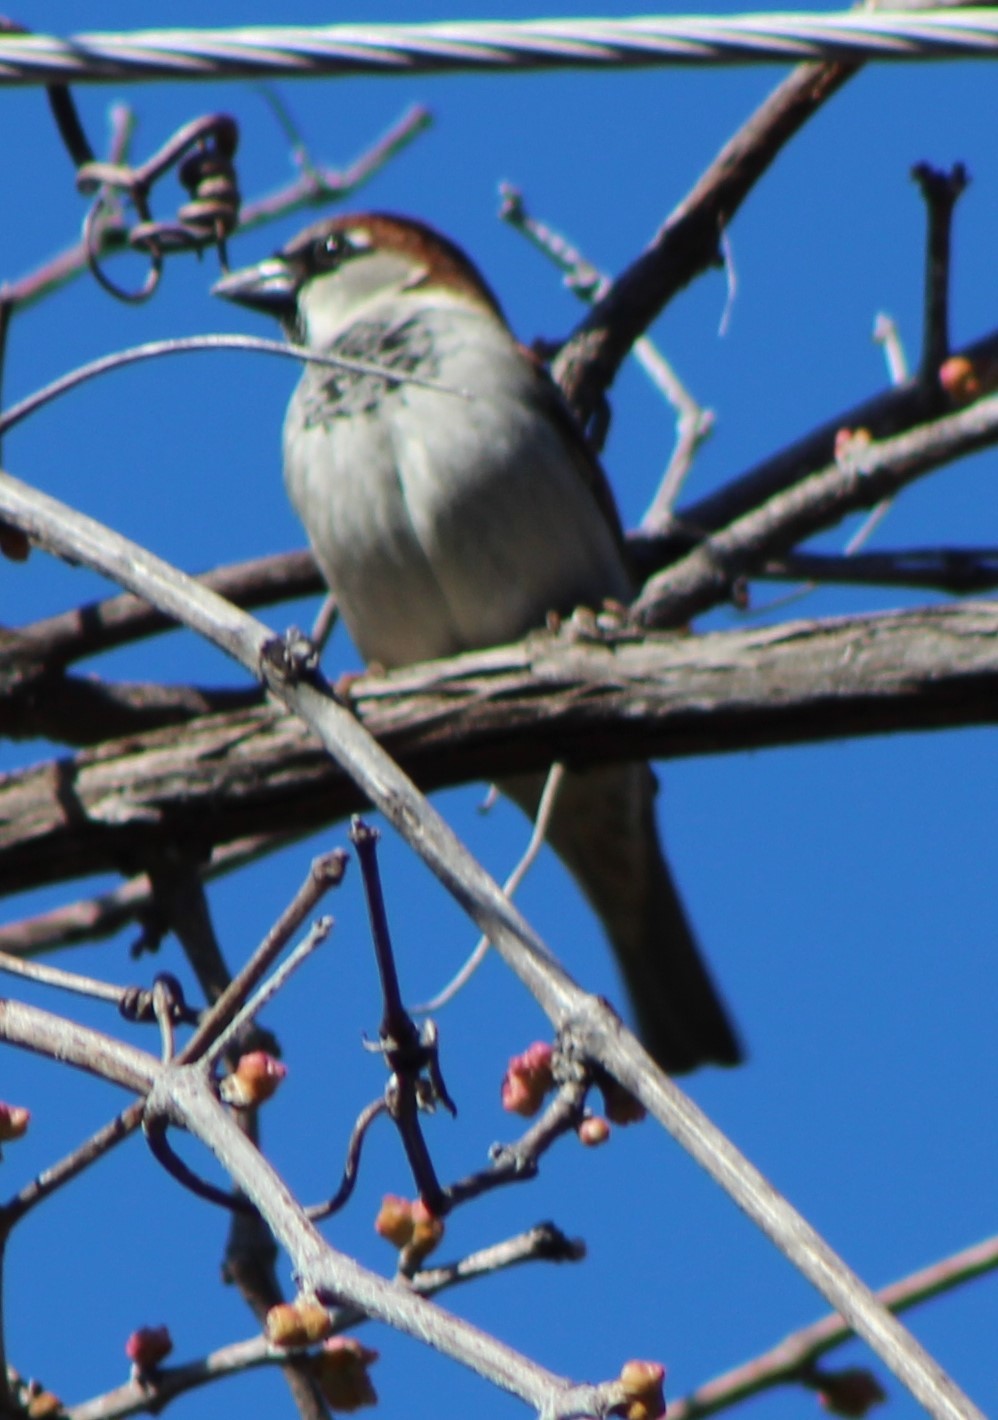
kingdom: Animalia
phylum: Chordata
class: Aves
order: Passeriformes
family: Passeridae
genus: Passer
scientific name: Passer domesticus
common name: House sparrow
